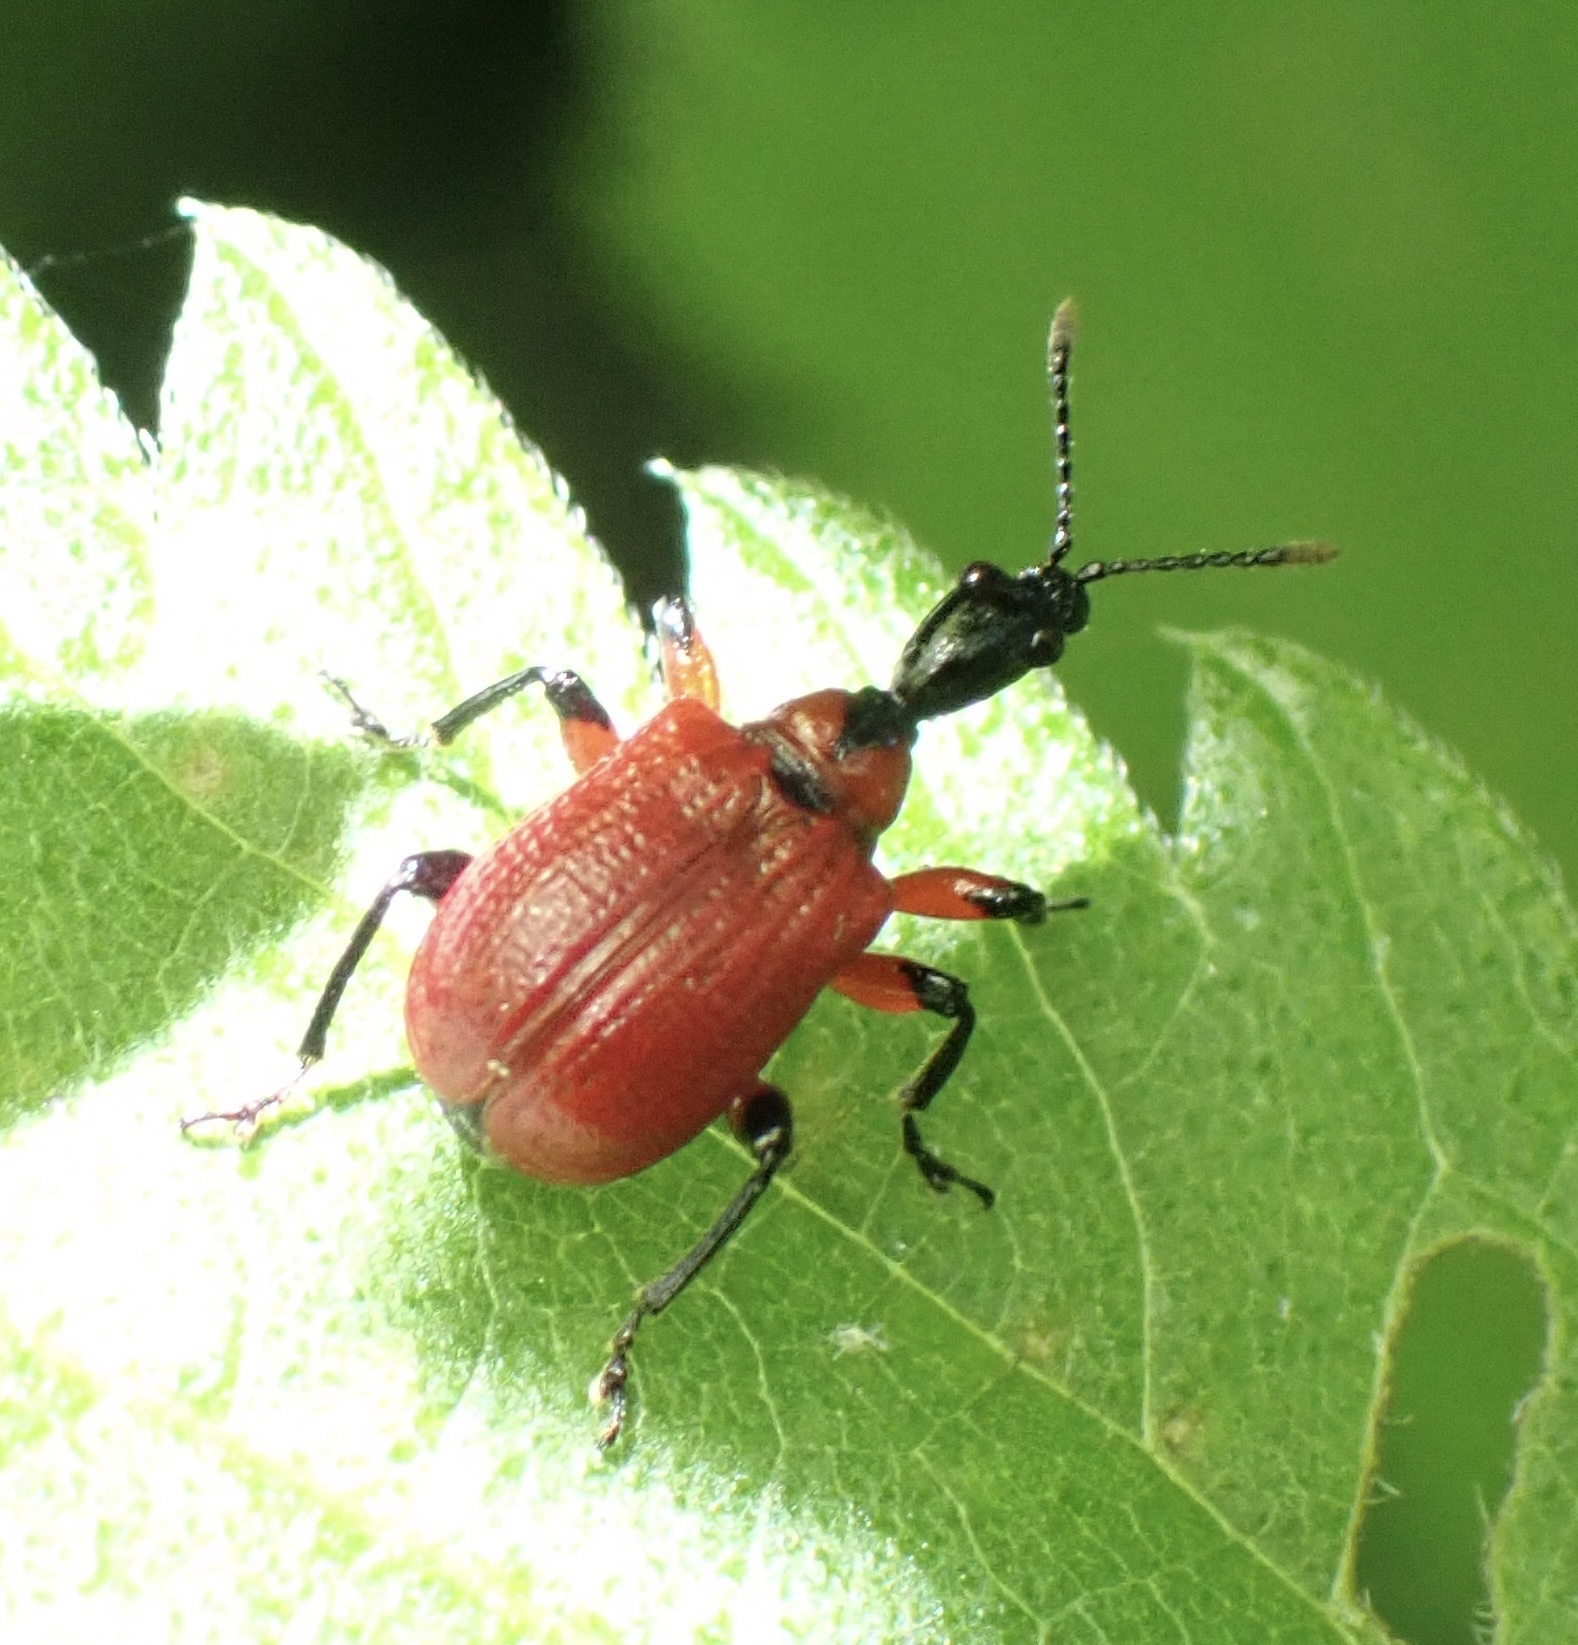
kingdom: Animalia
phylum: Arthropoda
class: Insecta
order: Coleoptera
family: Attelabidae
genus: Apoderus
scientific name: Apoderus coryli
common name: Hazel leaf roller
